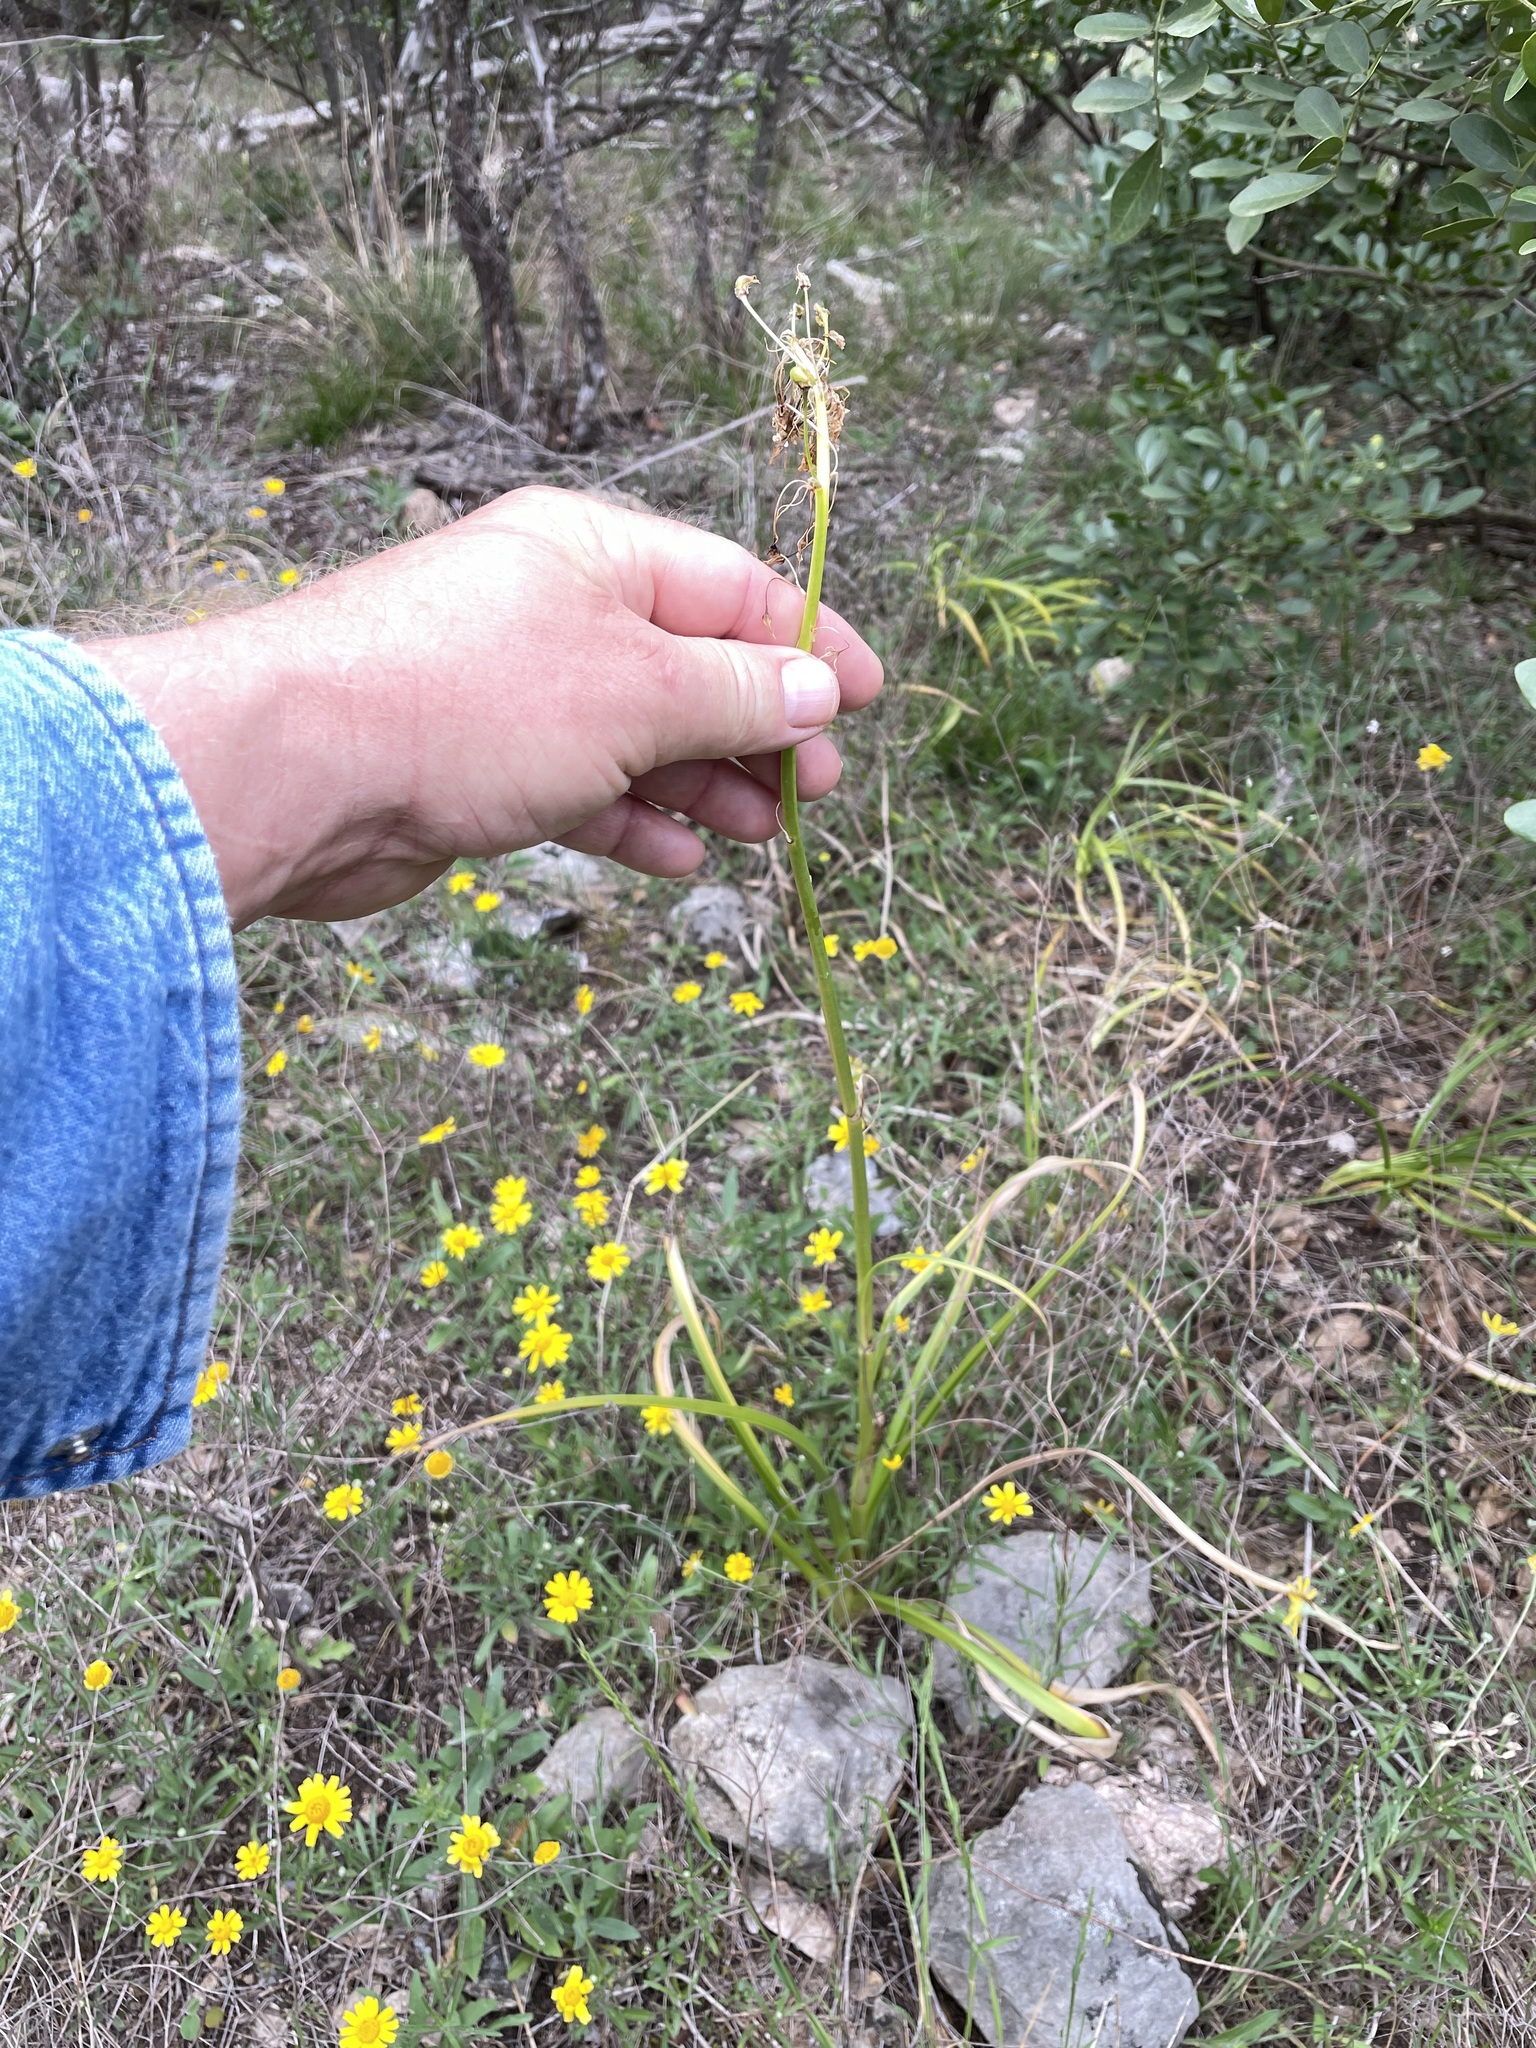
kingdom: Plantae
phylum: Tracheophyta
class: Liliopsida
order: Liliales
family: Melanthiaceae
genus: Toxicoscordion
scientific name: Toxicoscordion nuttallii
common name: Poison sego
